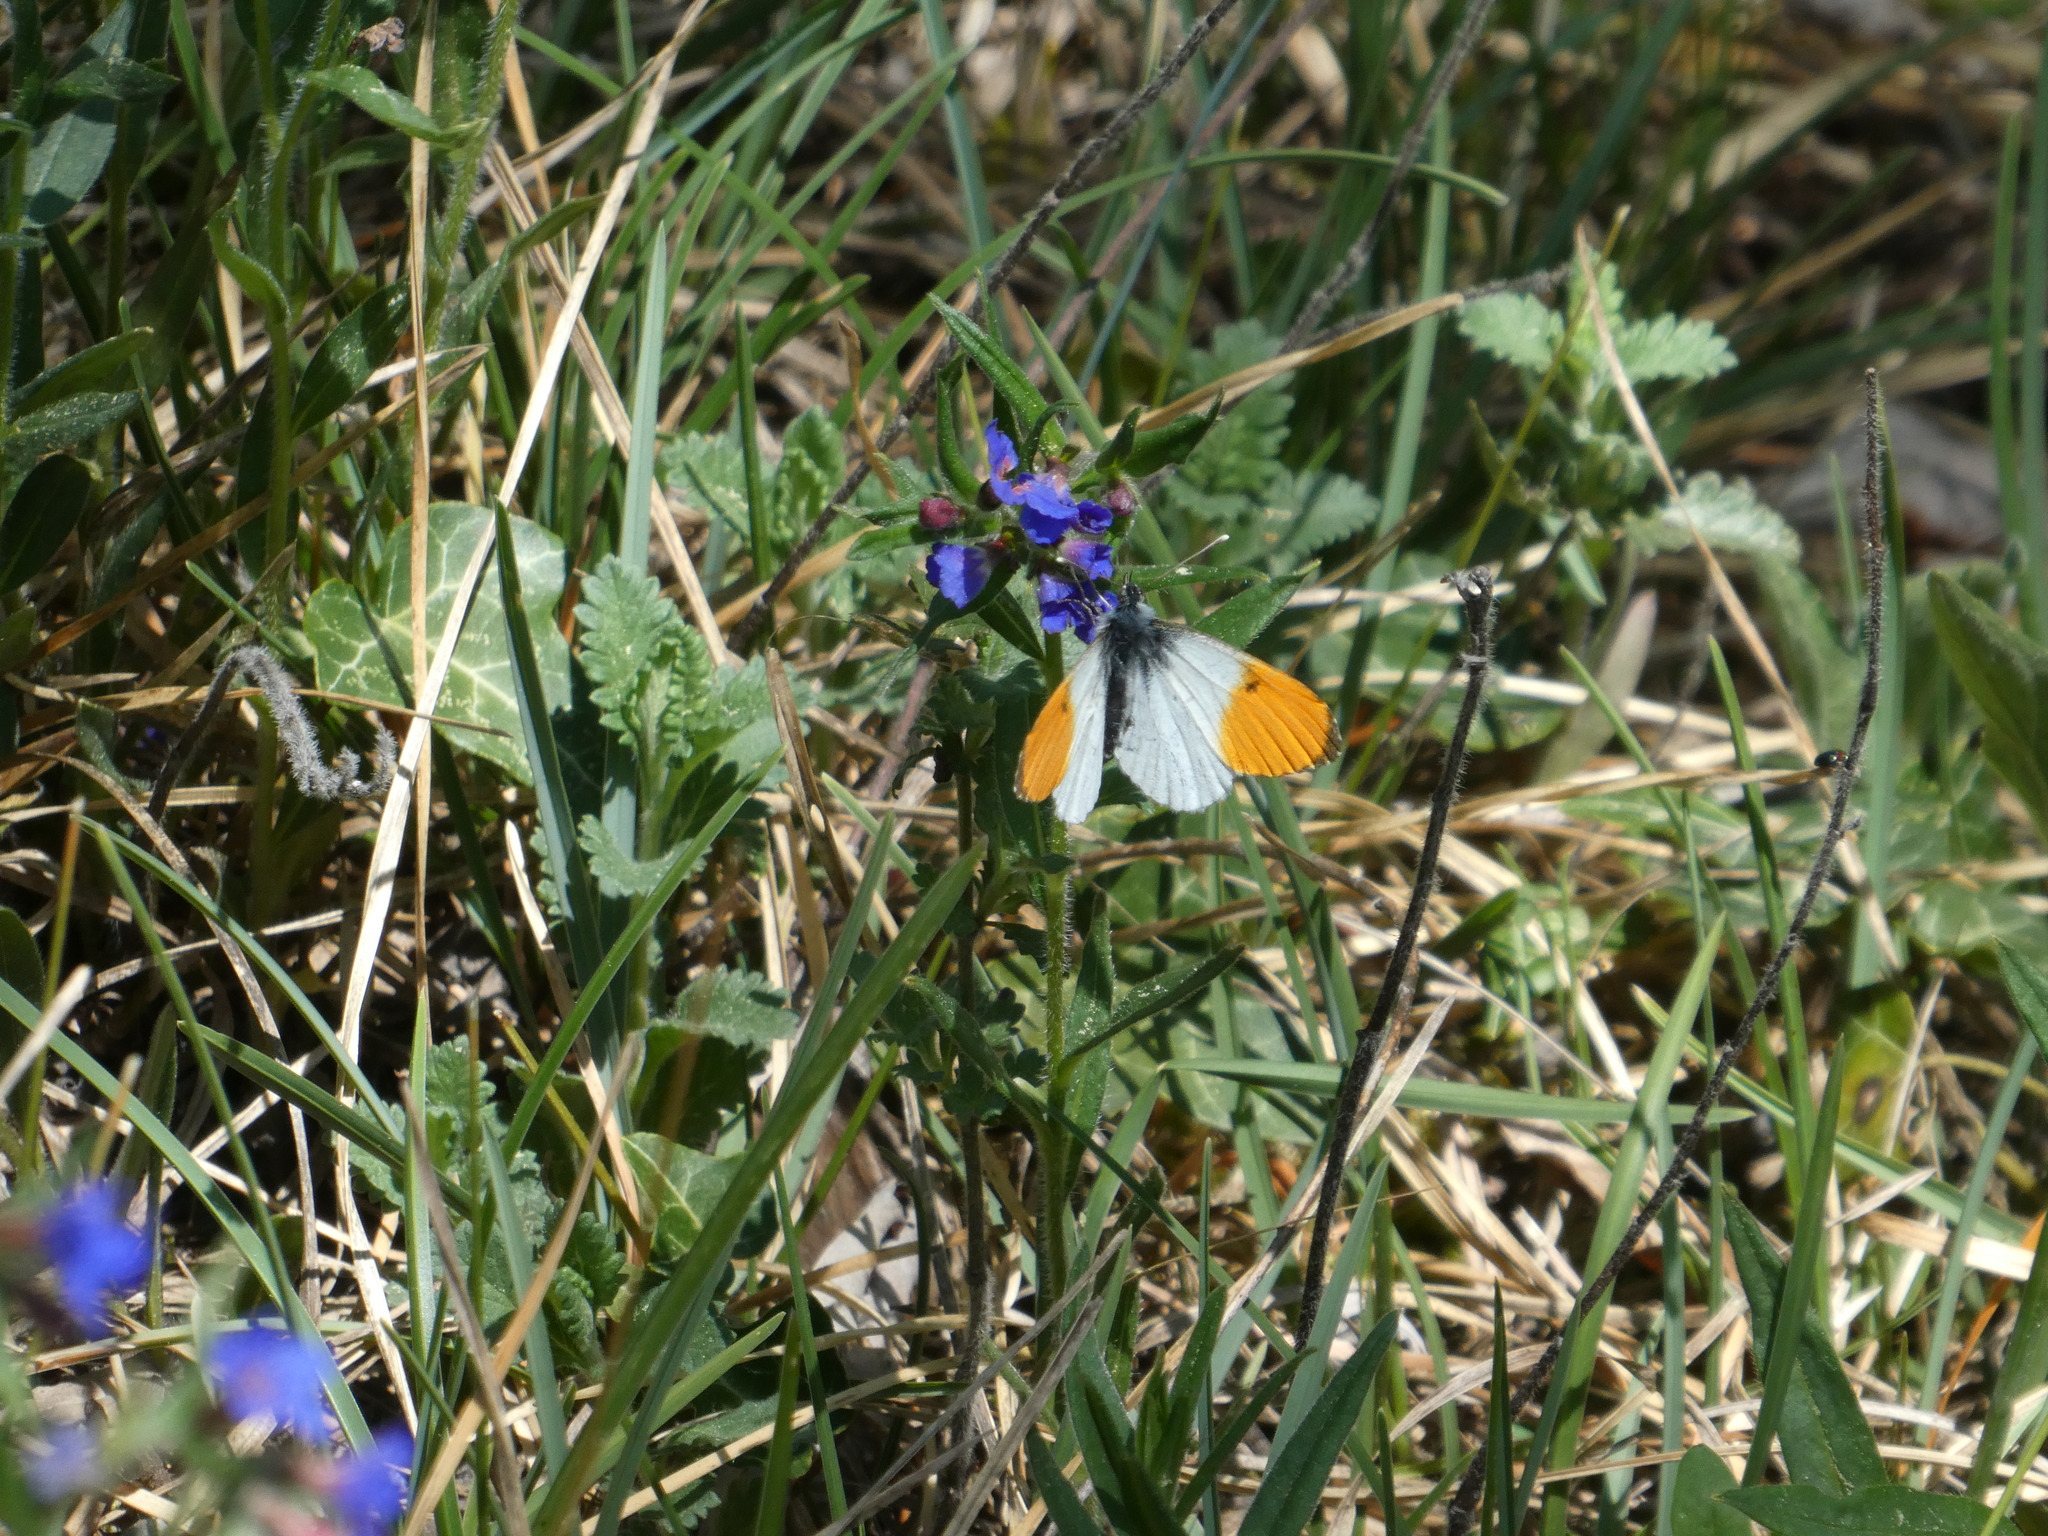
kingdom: Animalia
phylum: Arthropoda
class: Insecta
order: Lepidoptera
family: Pieridae
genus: Anthocharis
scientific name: Anthocharis cardamines
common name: Orange-tip
